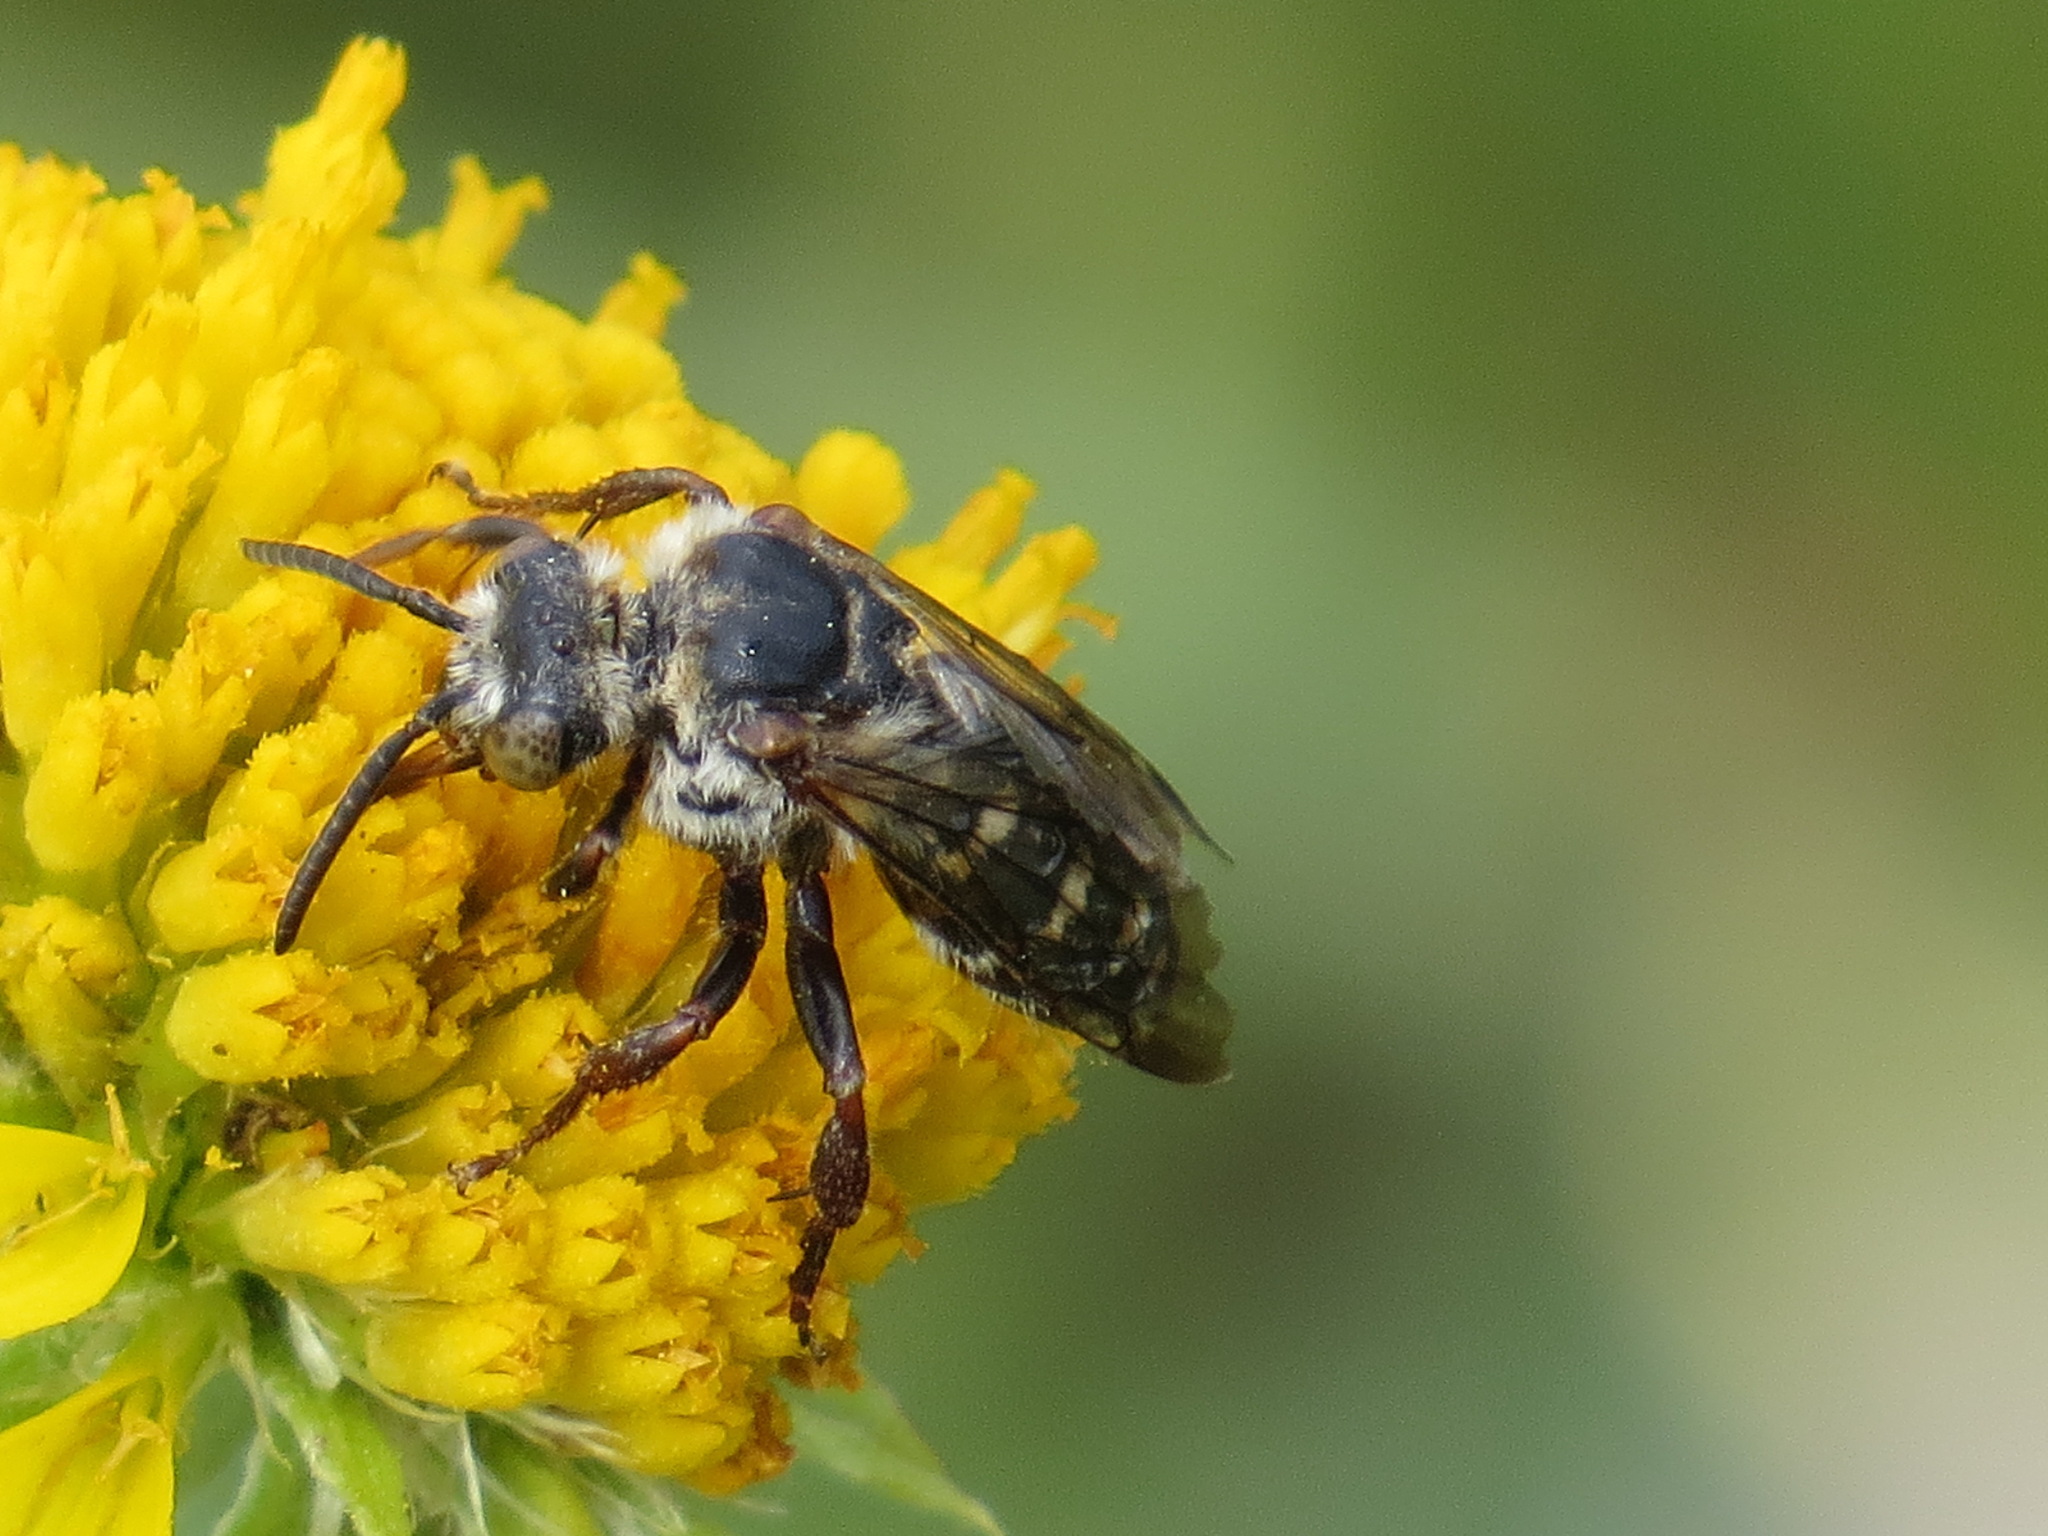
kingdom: Animalia
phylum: Arthropoda
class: Insecta
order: Hymenoptera
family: Apidae
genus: Brachymelecta
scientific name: Brachymelecta californica
